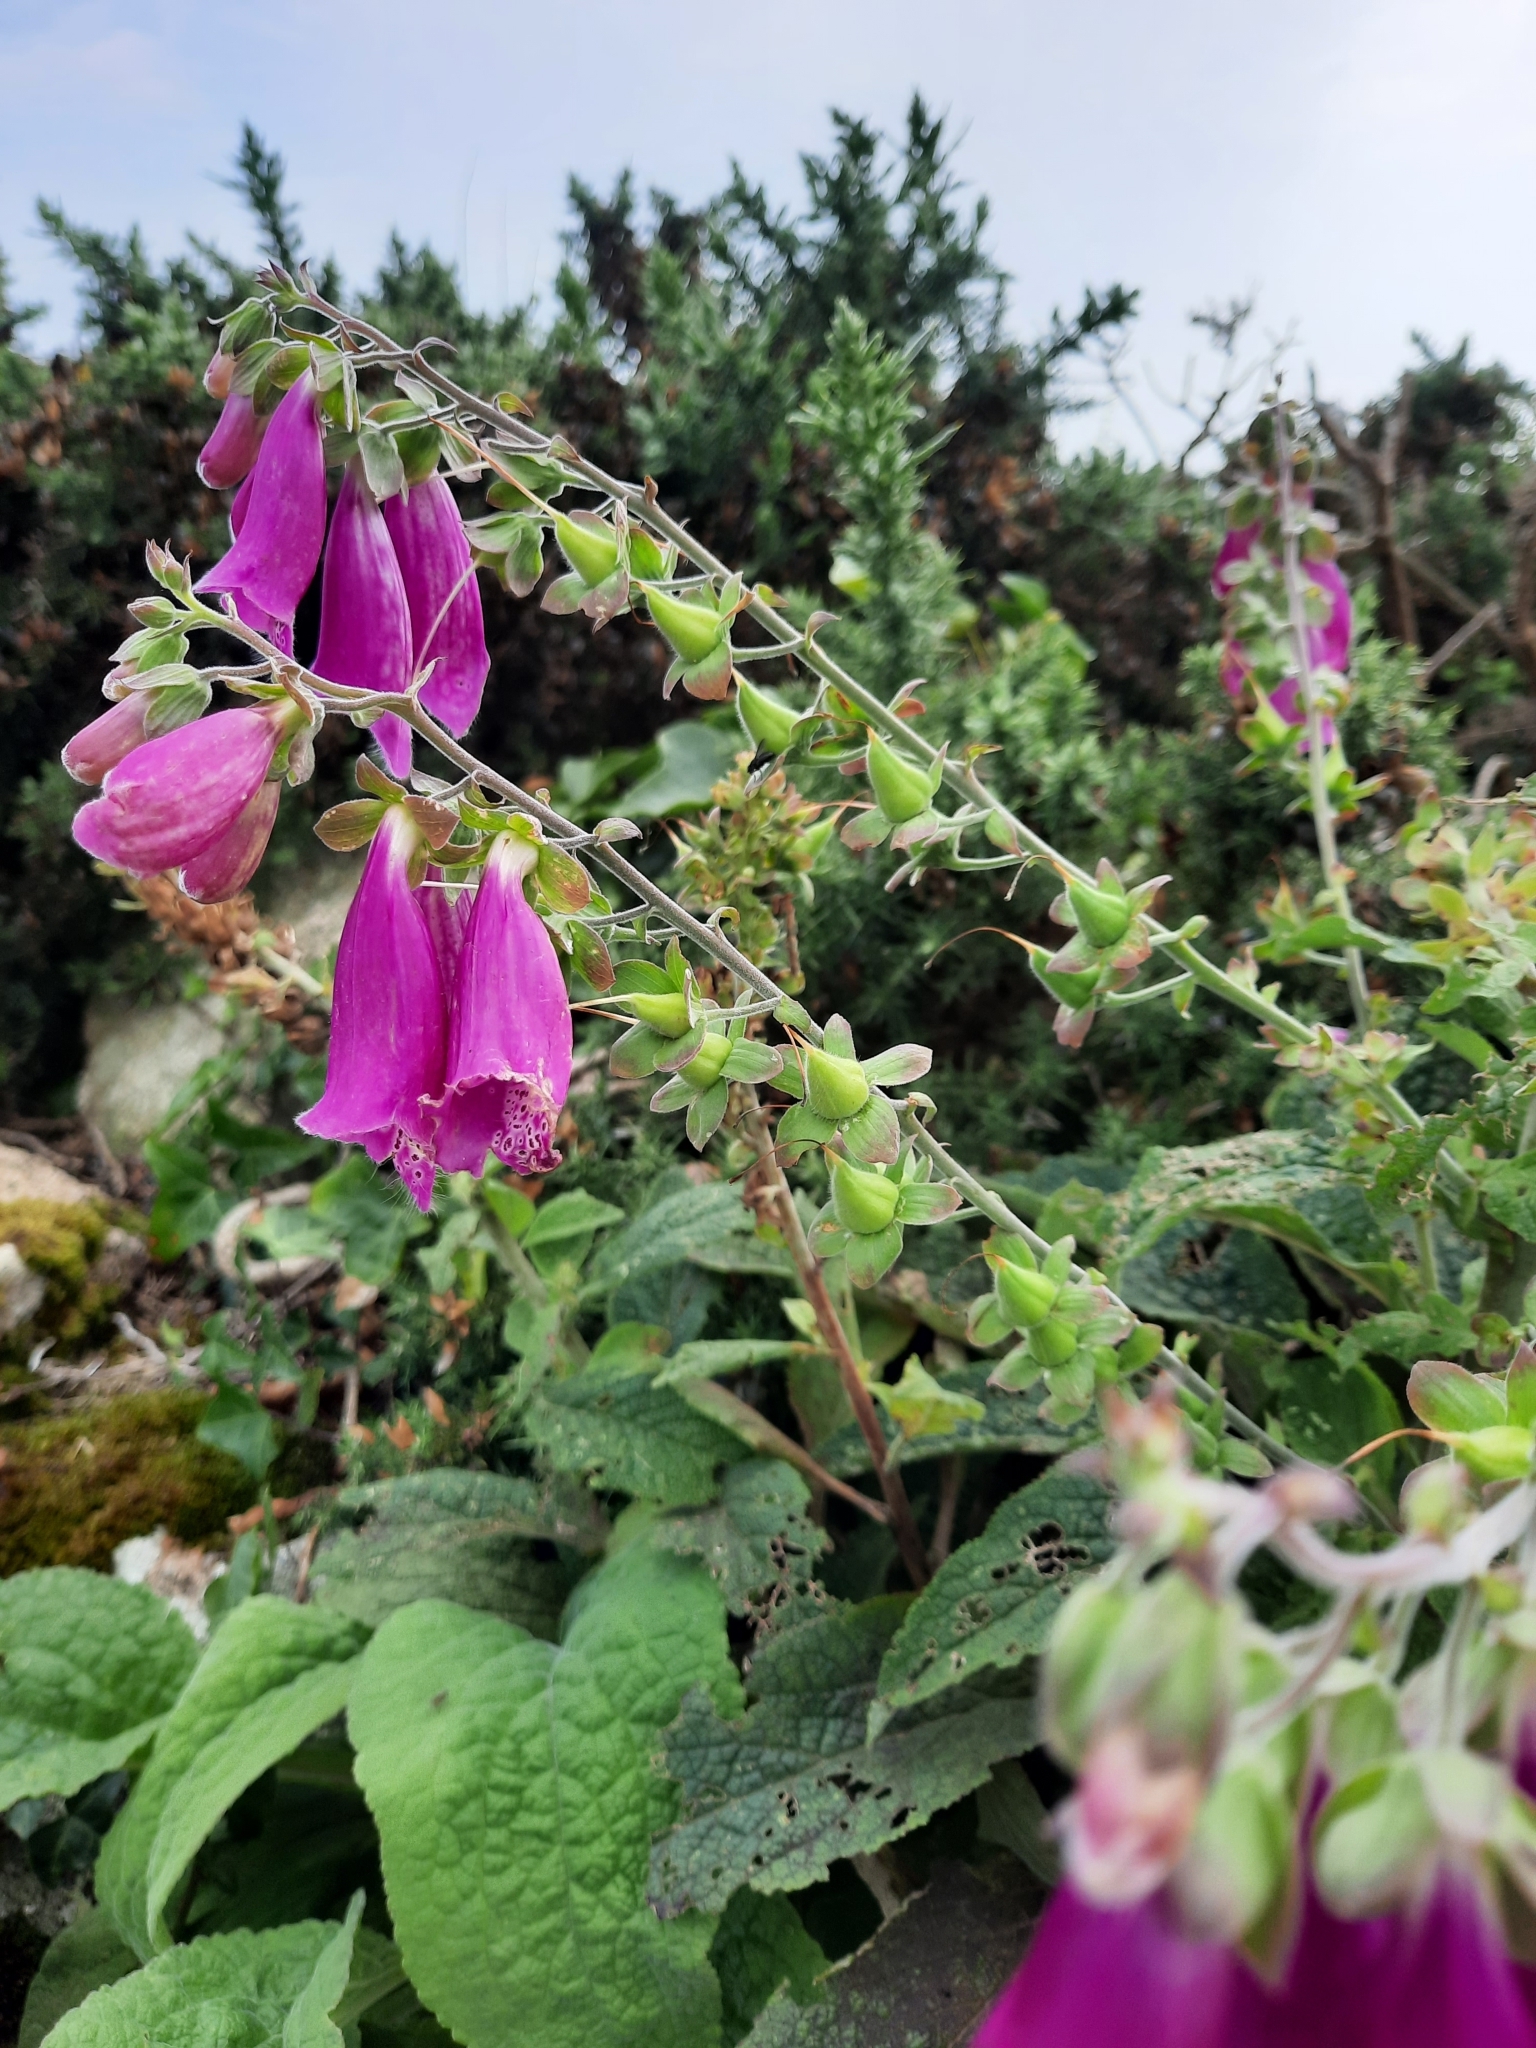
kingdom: Plantae
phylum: Tracheophyta
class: Magnoliopsida
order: Lamiales
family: Plantaginaceae
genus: Digitalis
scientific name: Digitalis purpurea
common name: Foxglove
